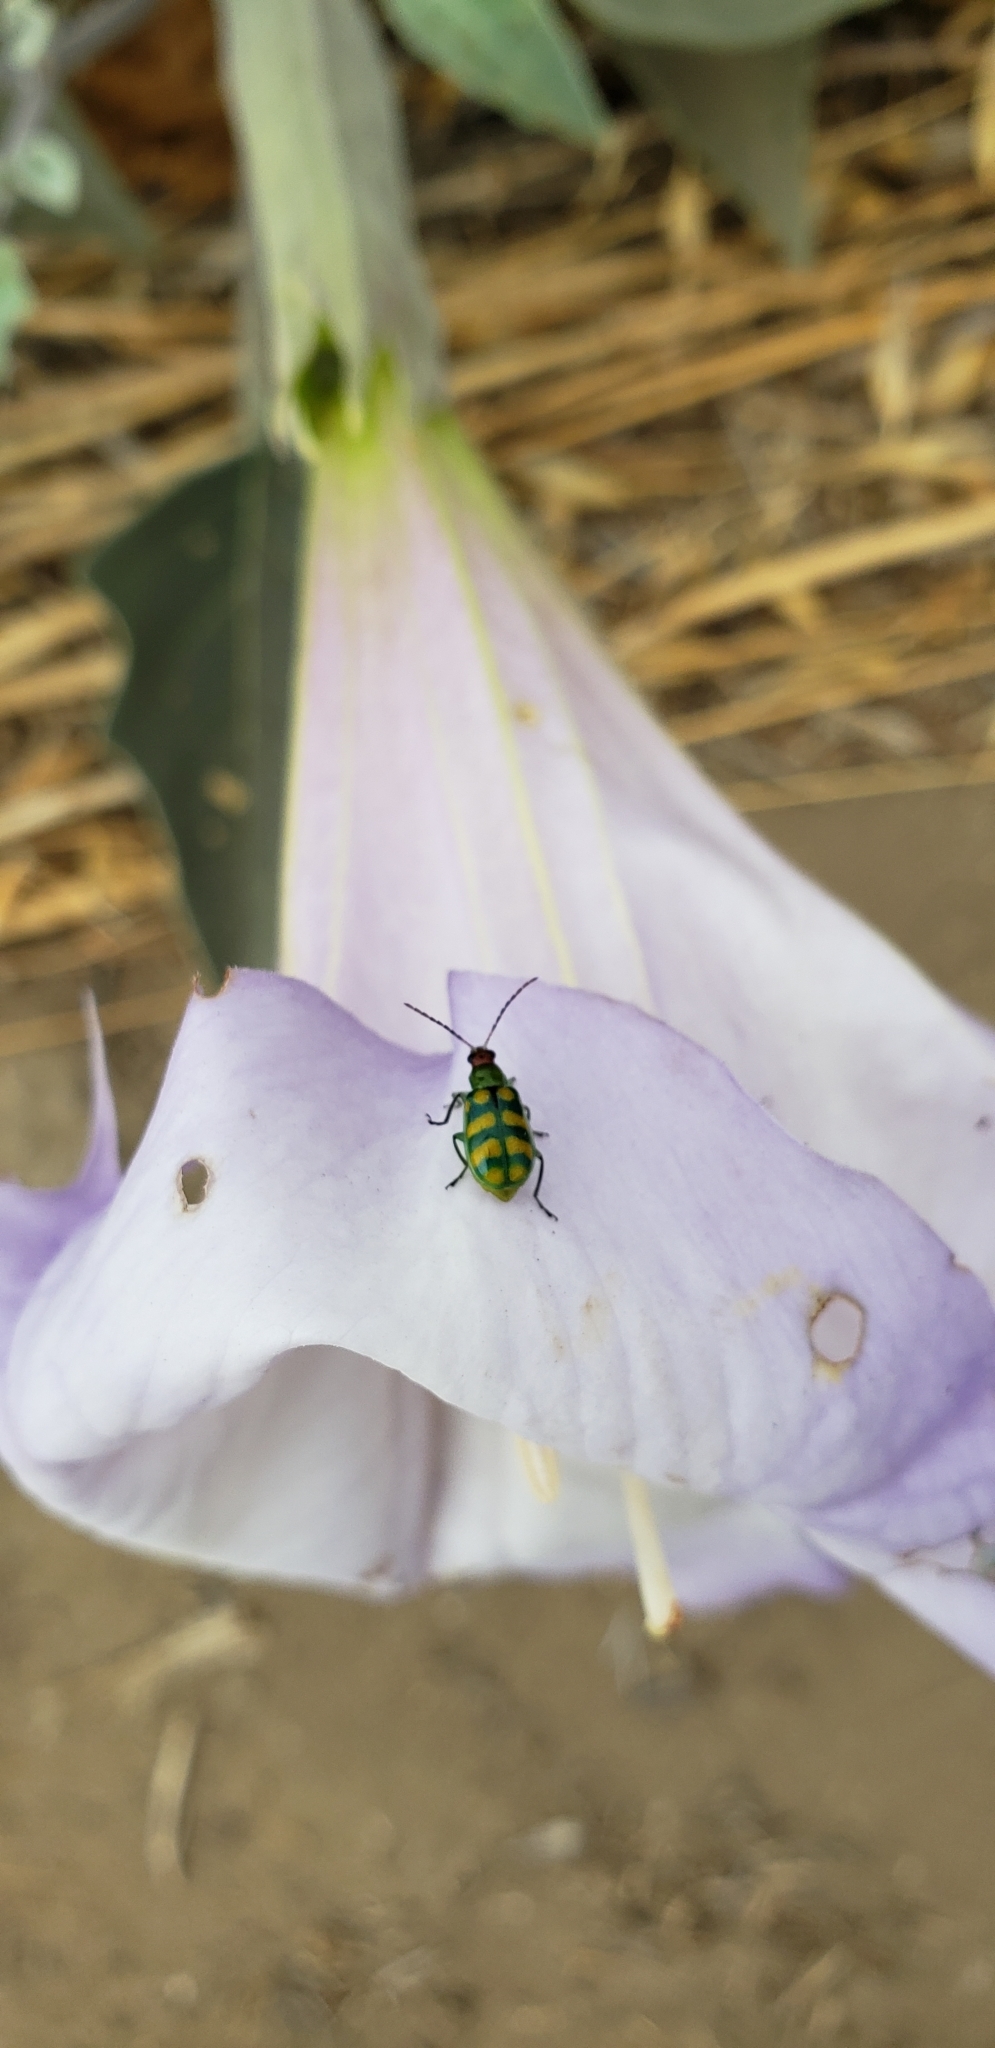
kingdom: Animalia
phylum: Arthropoda
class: Insecta
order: Coleoptera
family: Chrysomelidae
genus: Diabrotica
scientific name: Diabrotica balteata
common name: Leaf beetle
